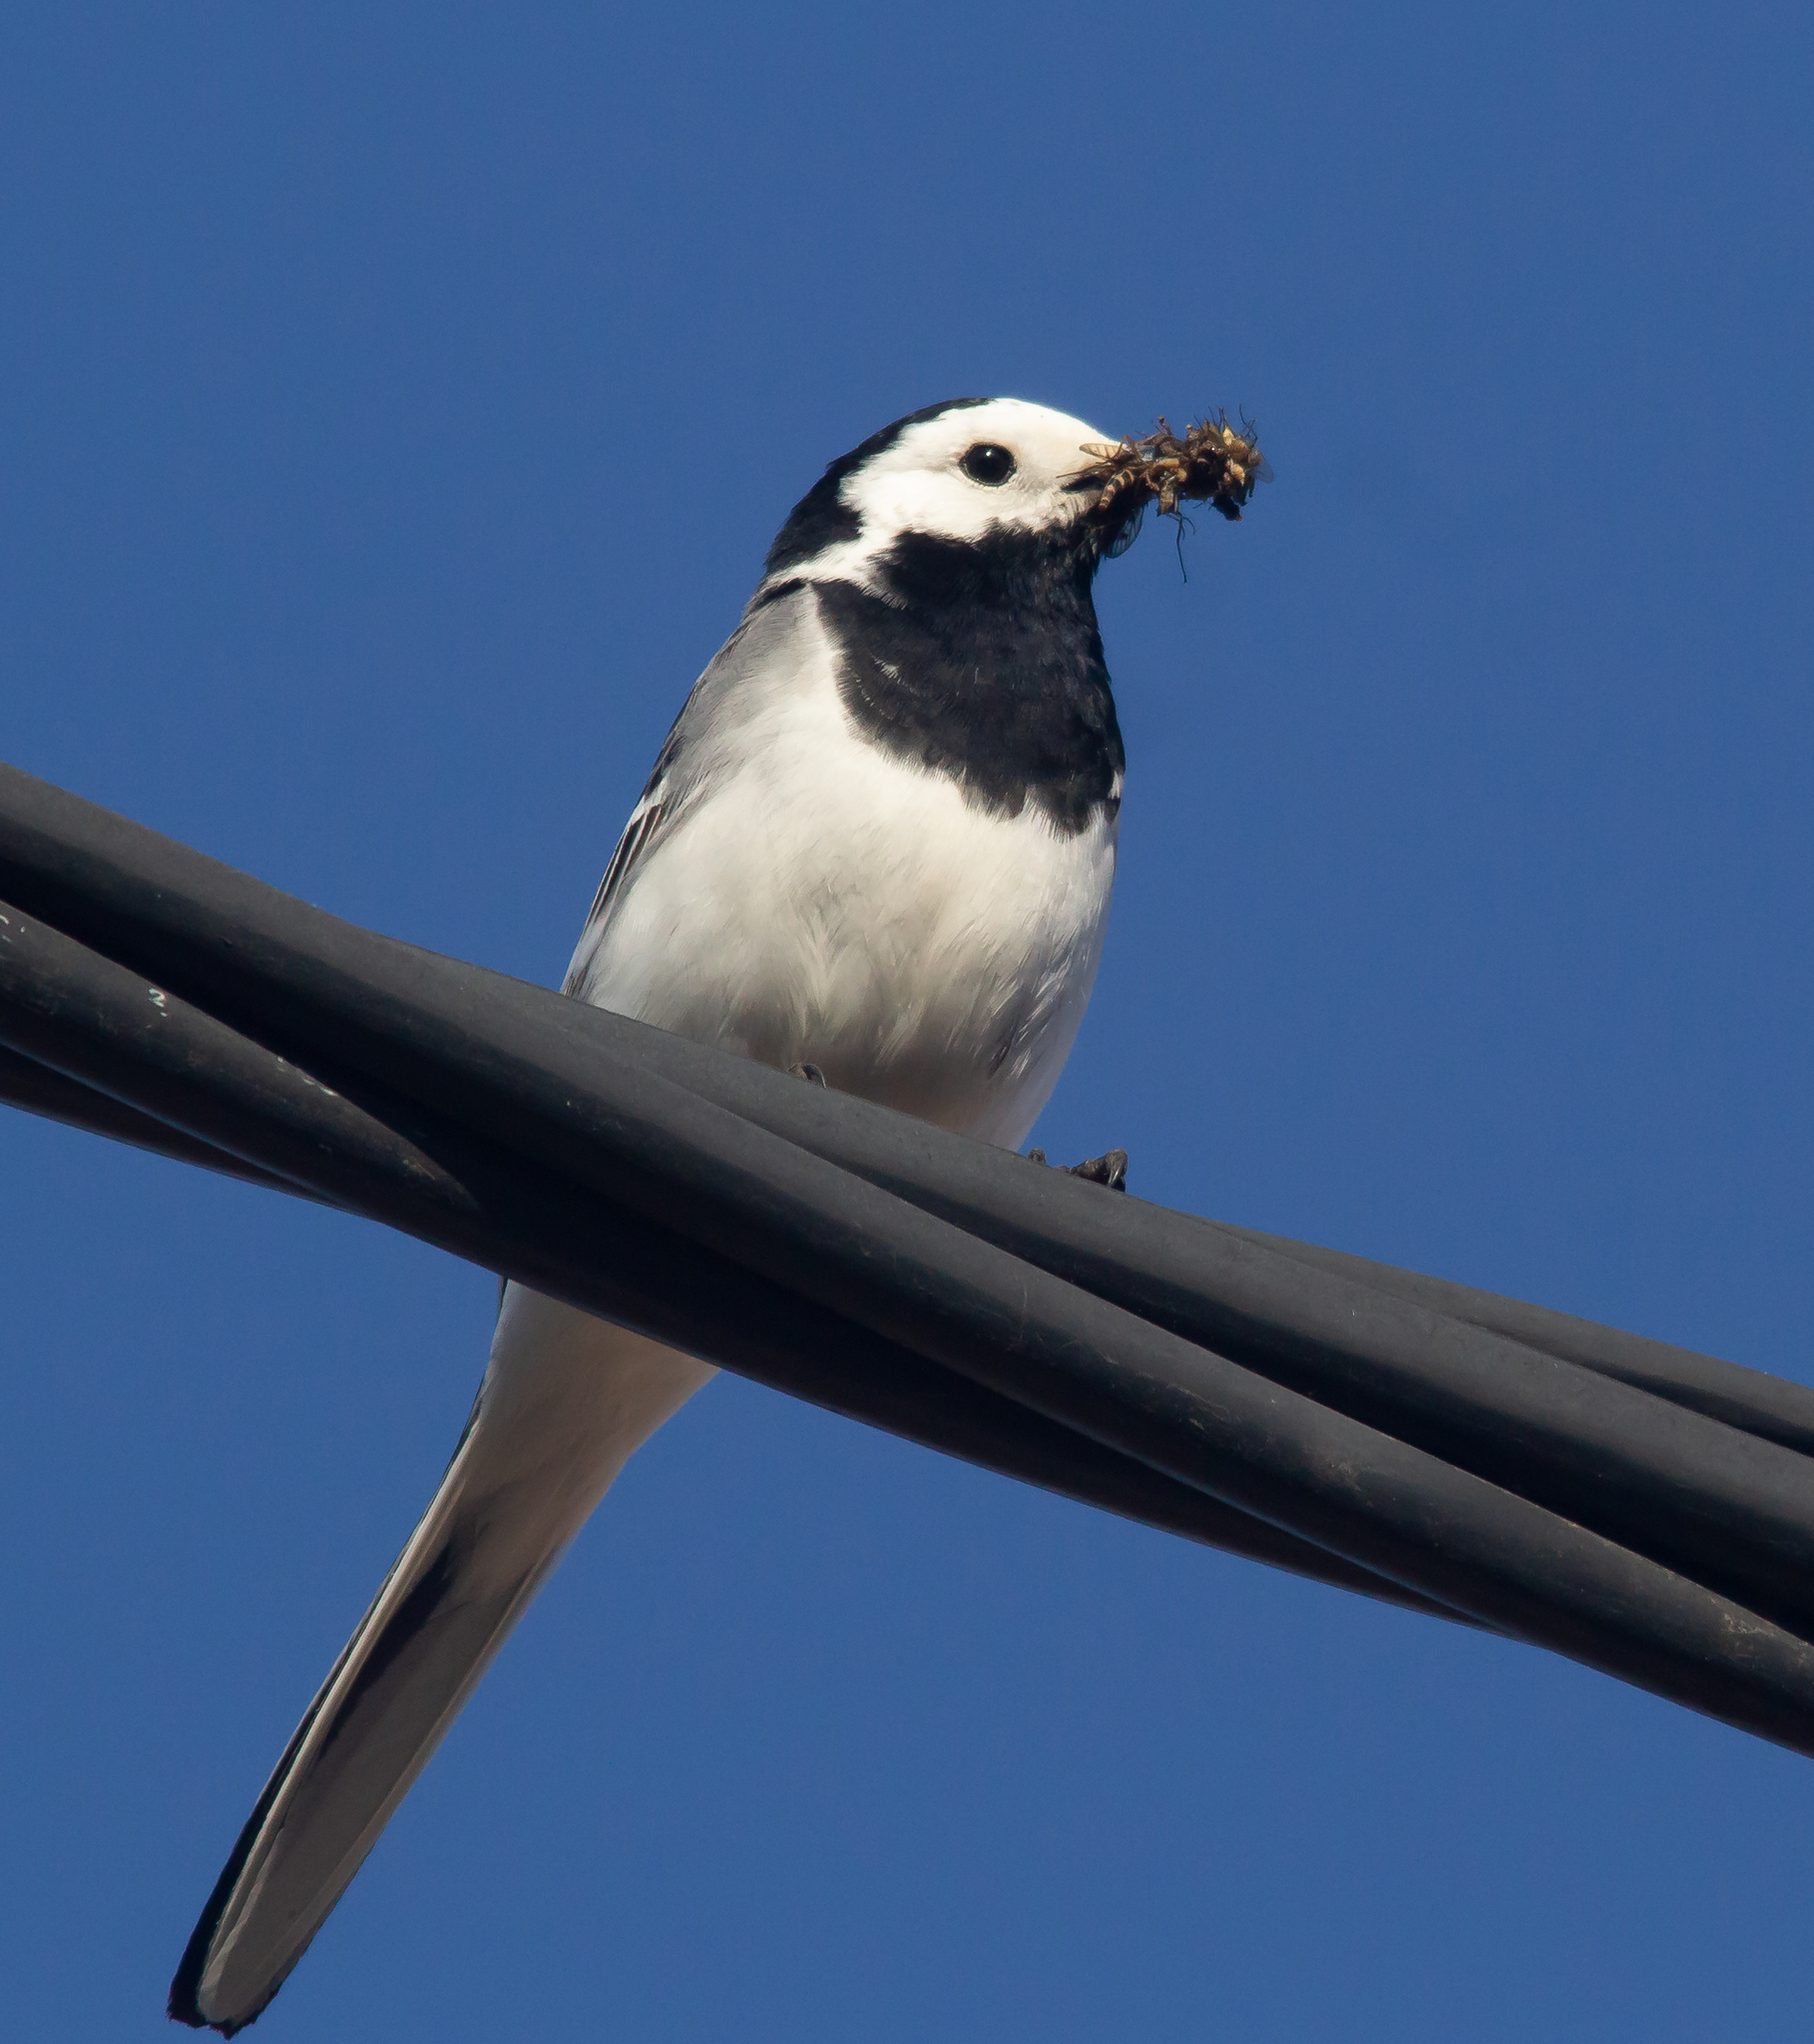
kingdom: Animalia
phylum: Chordata
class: Aves
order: Passeriformes
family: Motacillidae
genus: Motacilla
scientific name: Motacilla alba
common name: White wagtail
